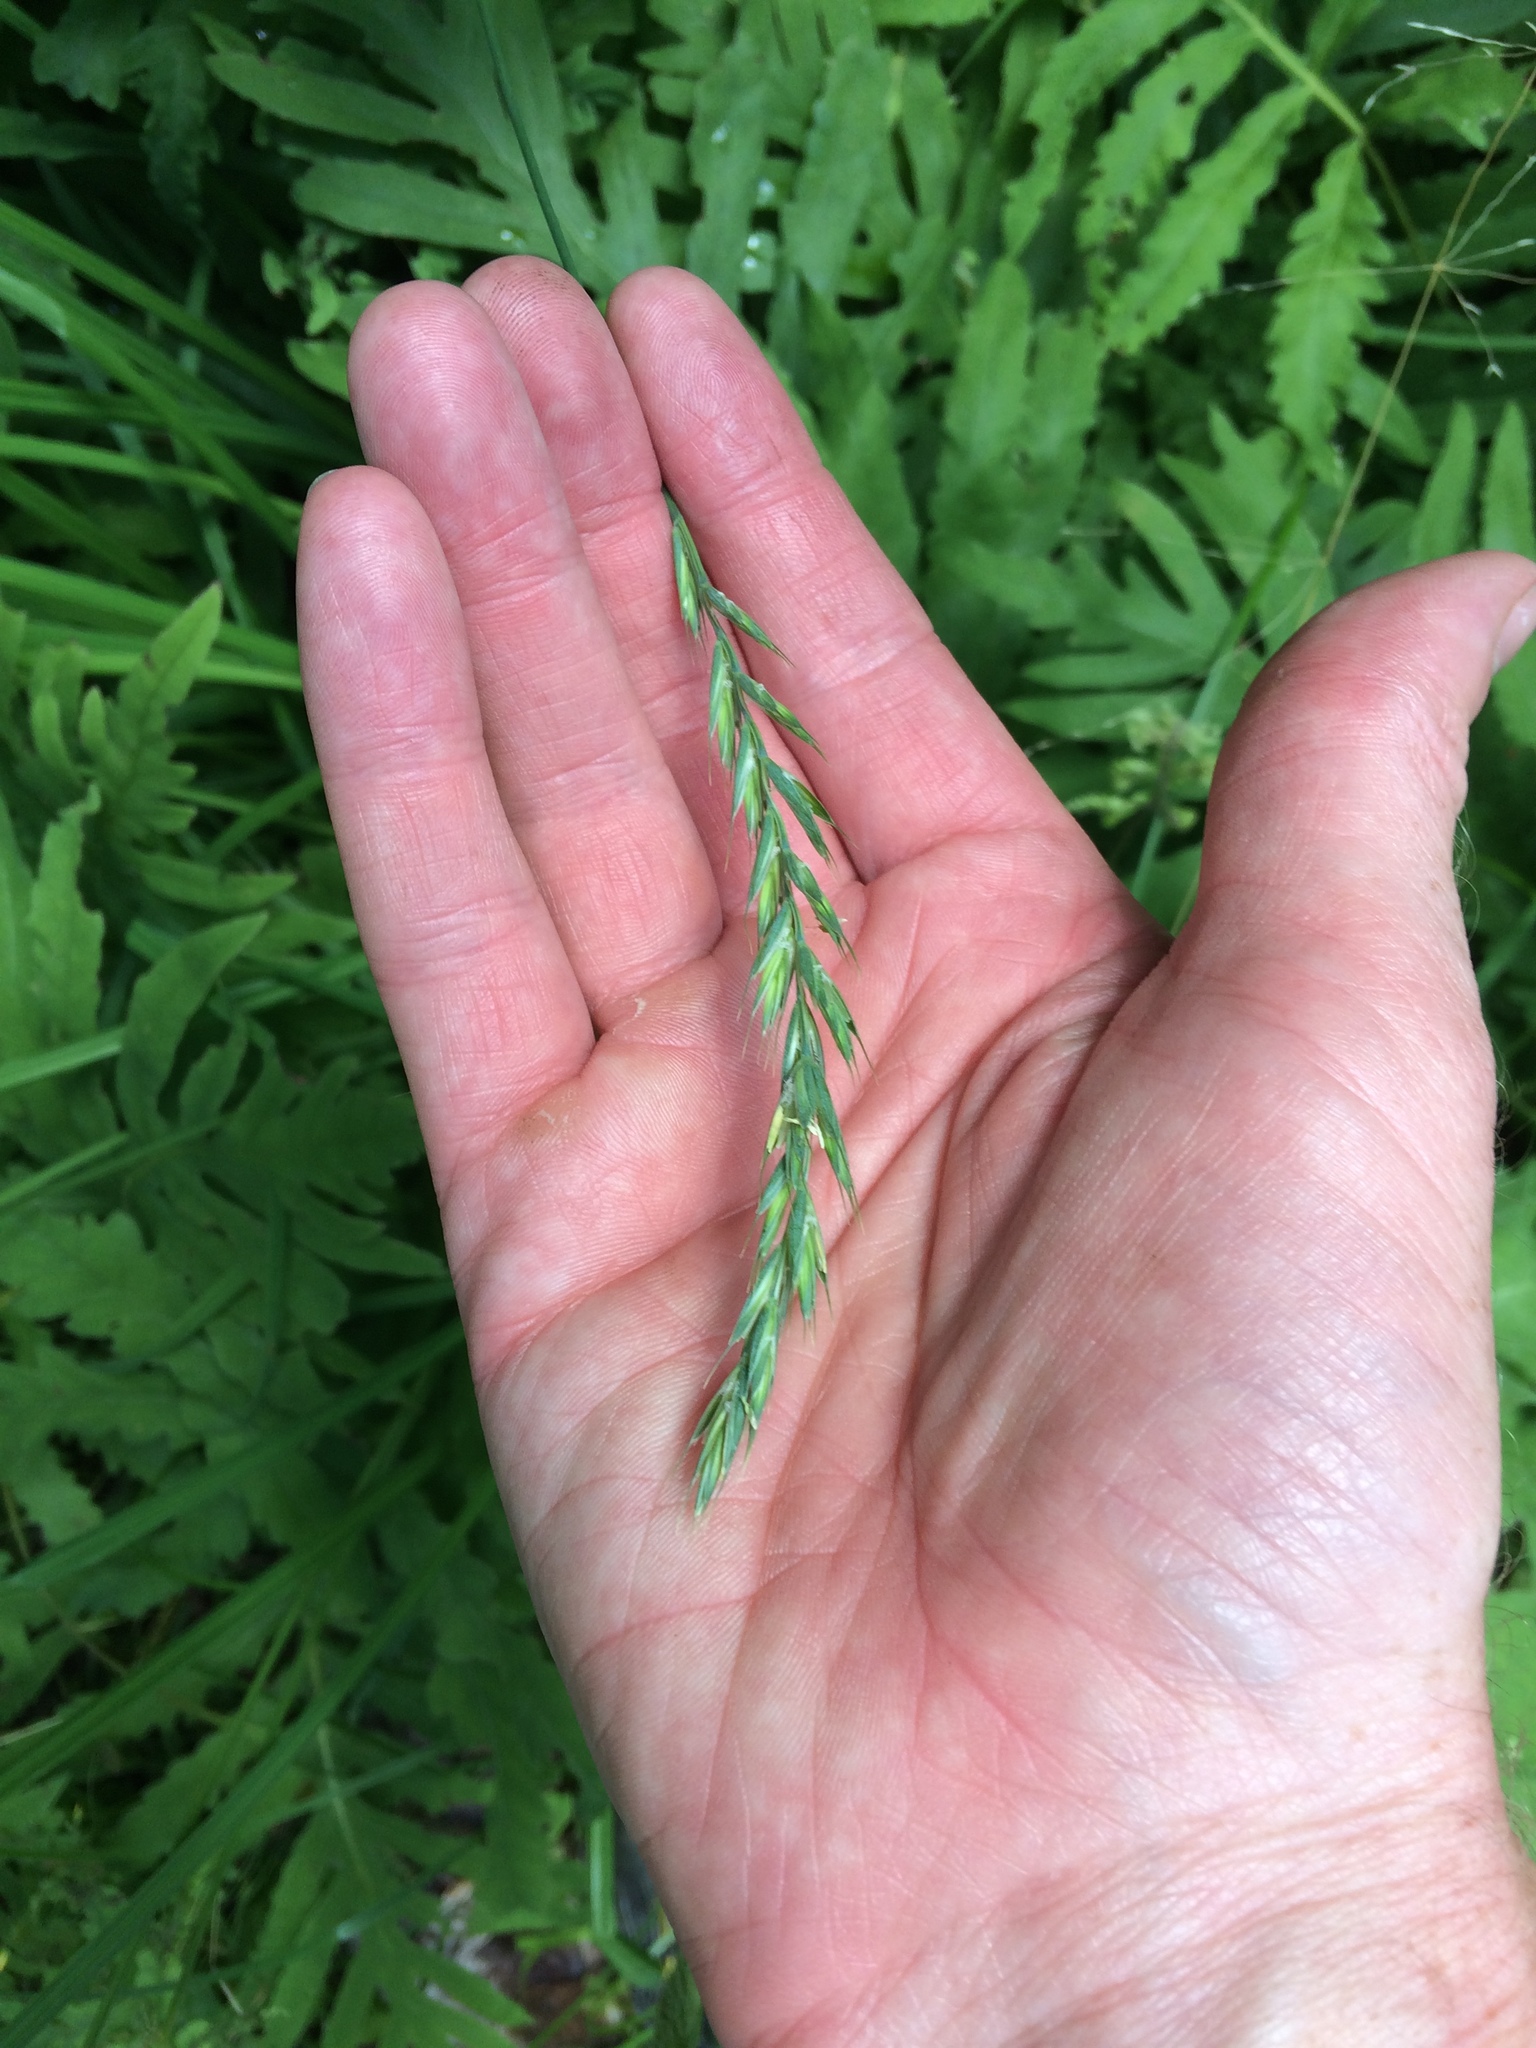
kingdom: Plantae
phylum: Tracheophyta
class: Liliopsida
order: Poales
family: Poaceae
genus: Elymus
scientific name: Elymus repens
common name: Quackgrass
